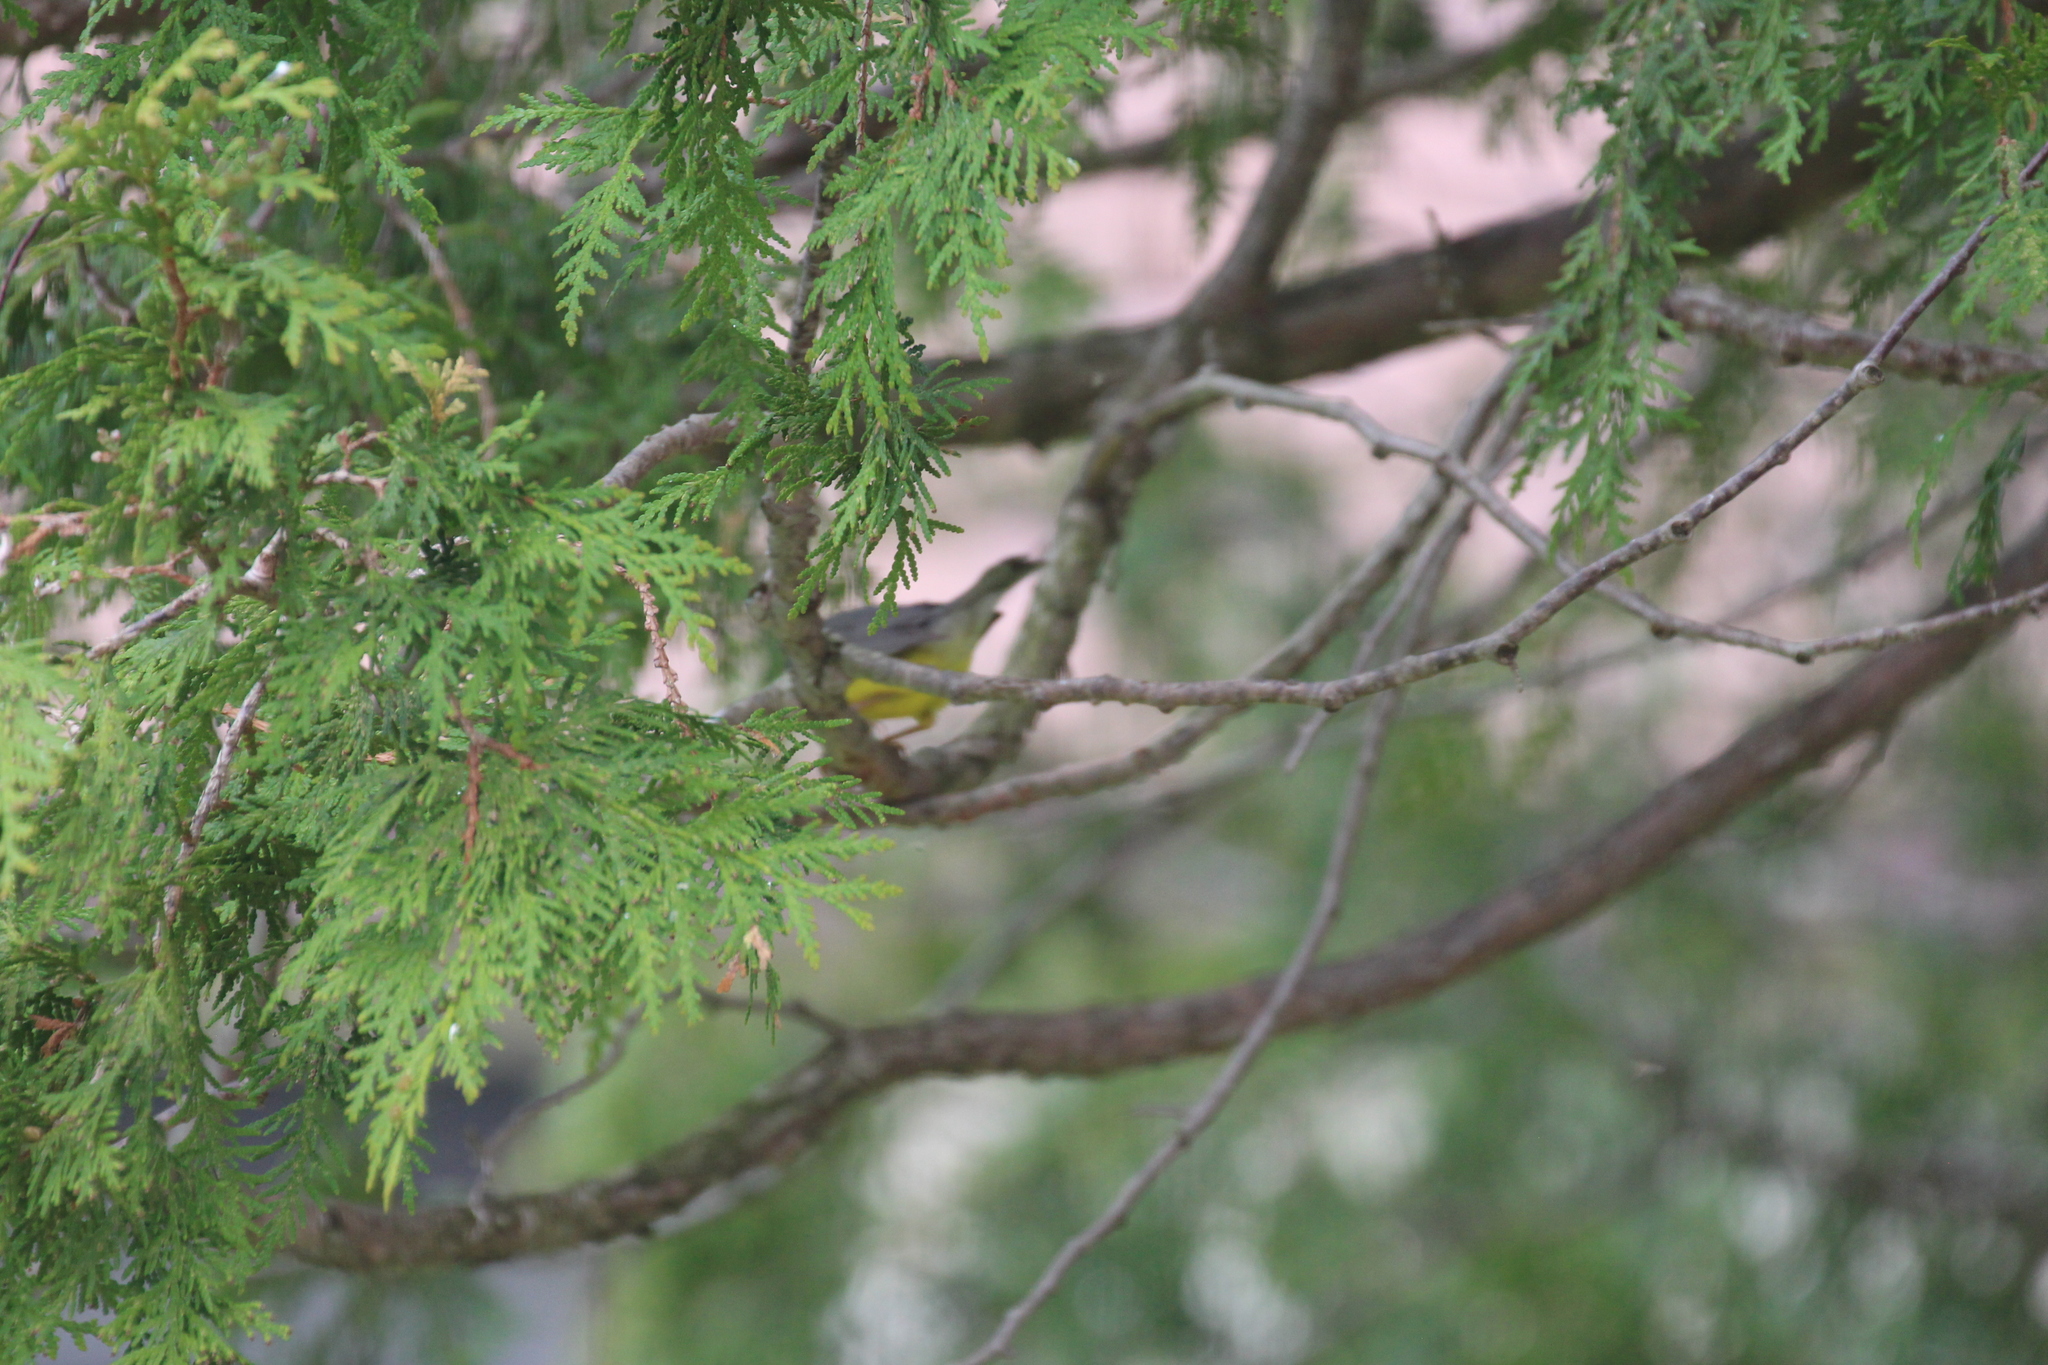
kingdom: Animalia
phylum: Chordata
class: Aves
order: Passeriformes
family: Parulidae
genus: Cardellina
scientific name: Cardellina canadensis
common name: Canada warbler
